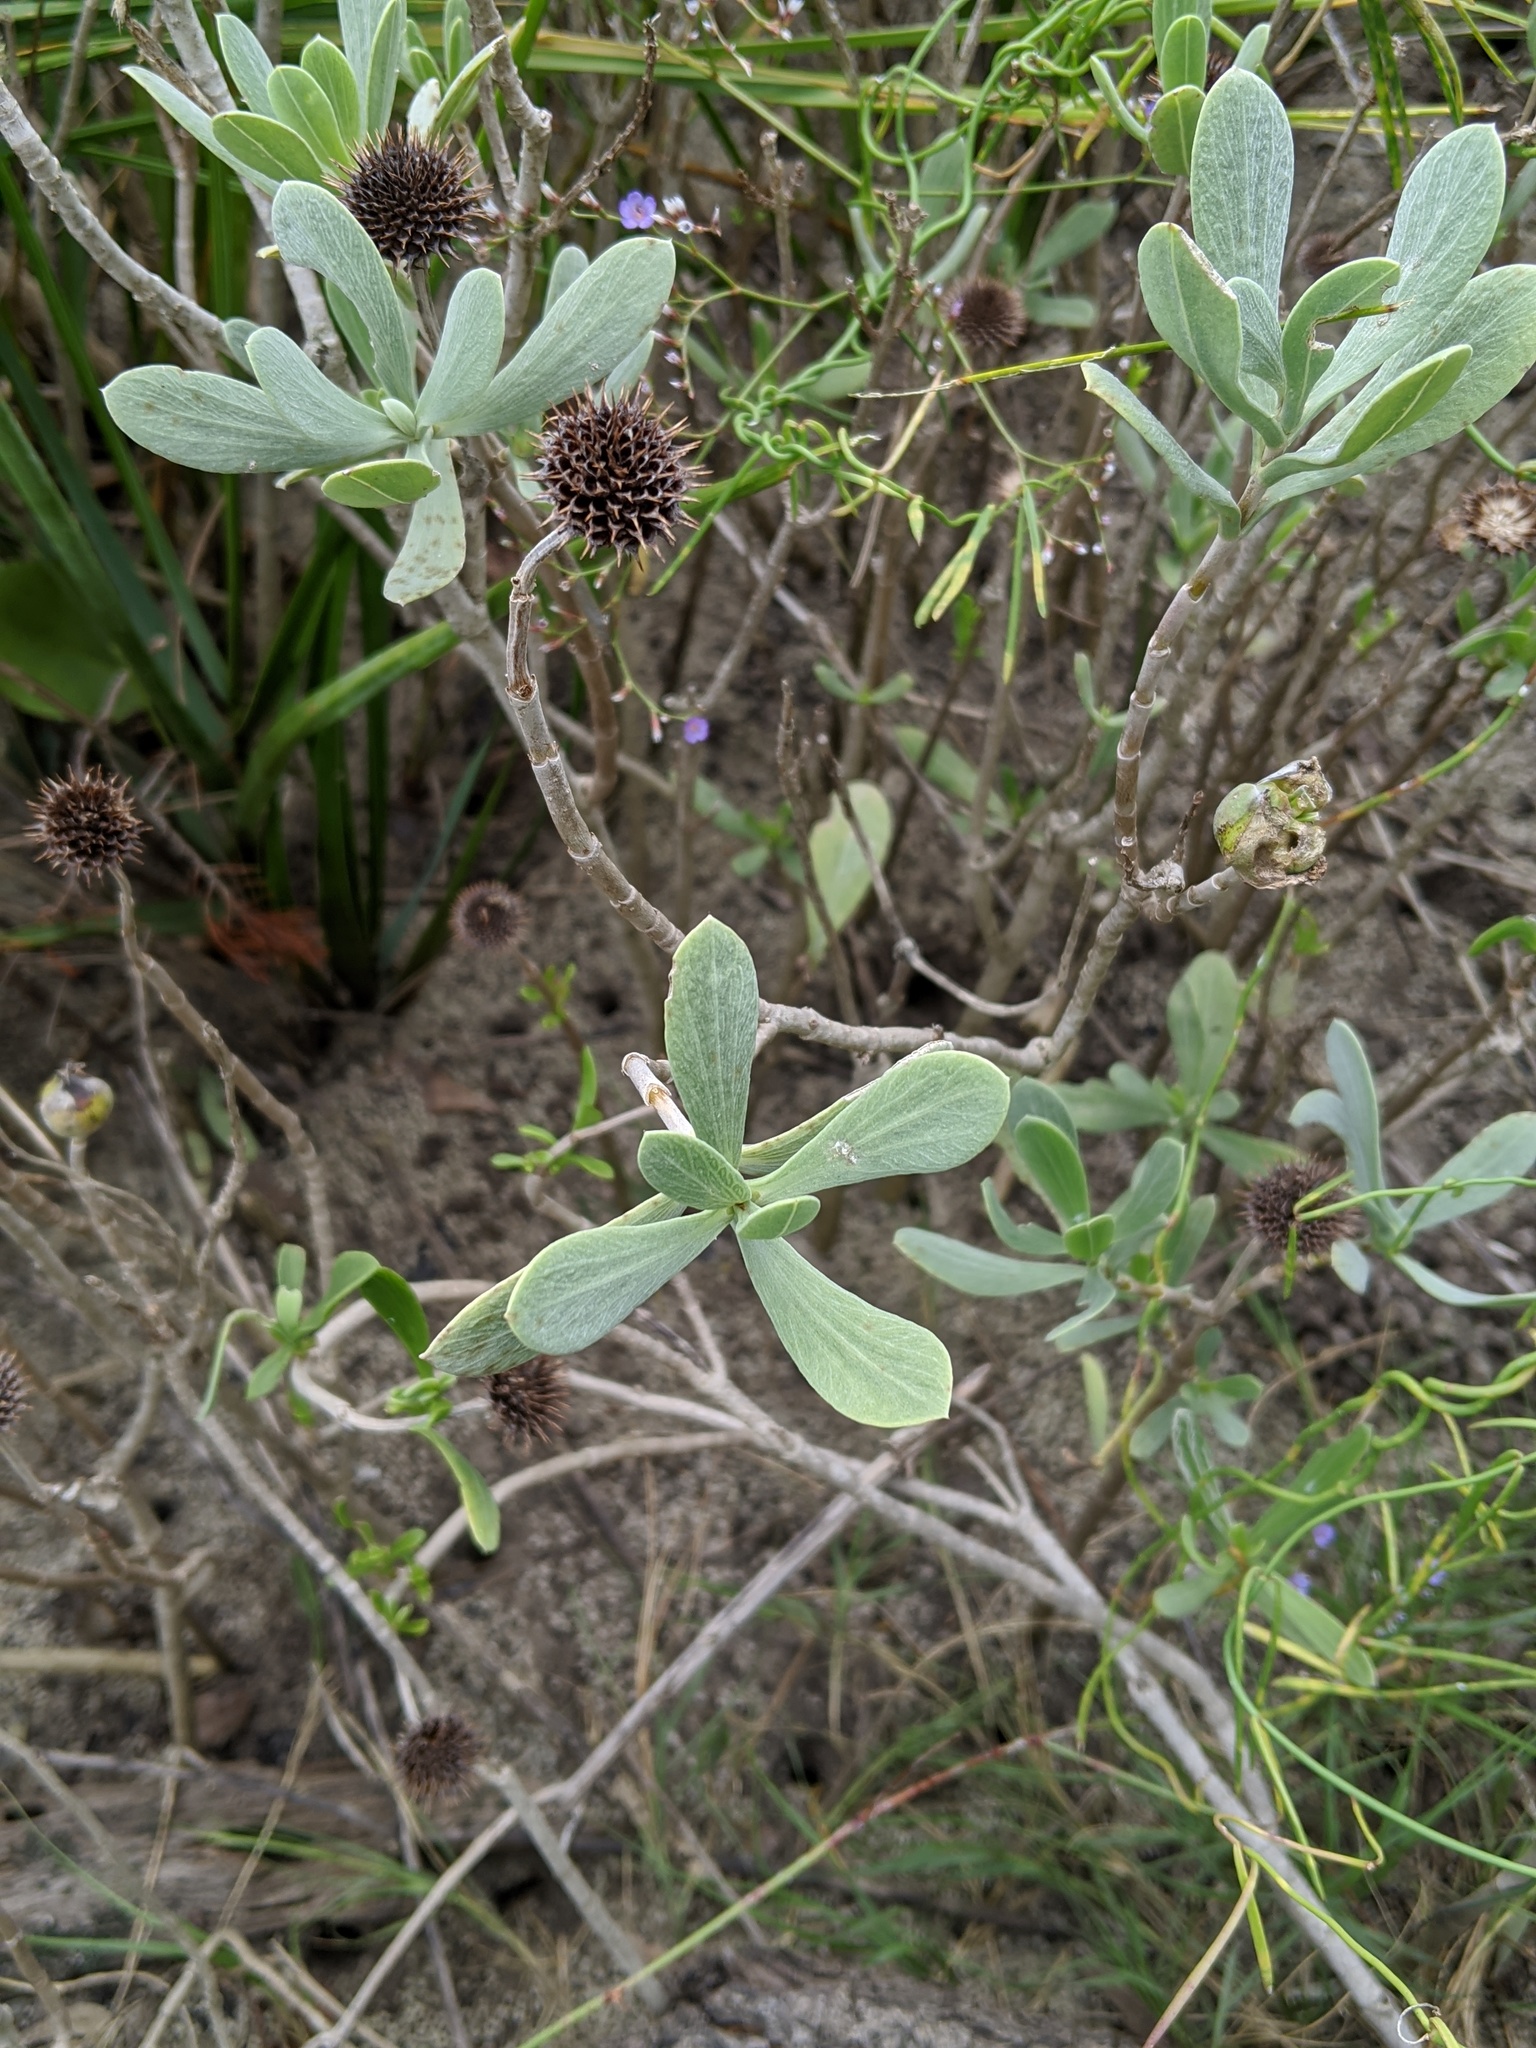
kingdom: Plantae
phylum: Tracheophyta
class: Magnoliopsida
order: Asterales
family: Asteraceae
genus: Borrichia
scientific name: Borrichia frutescens
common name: Sea oxeye
